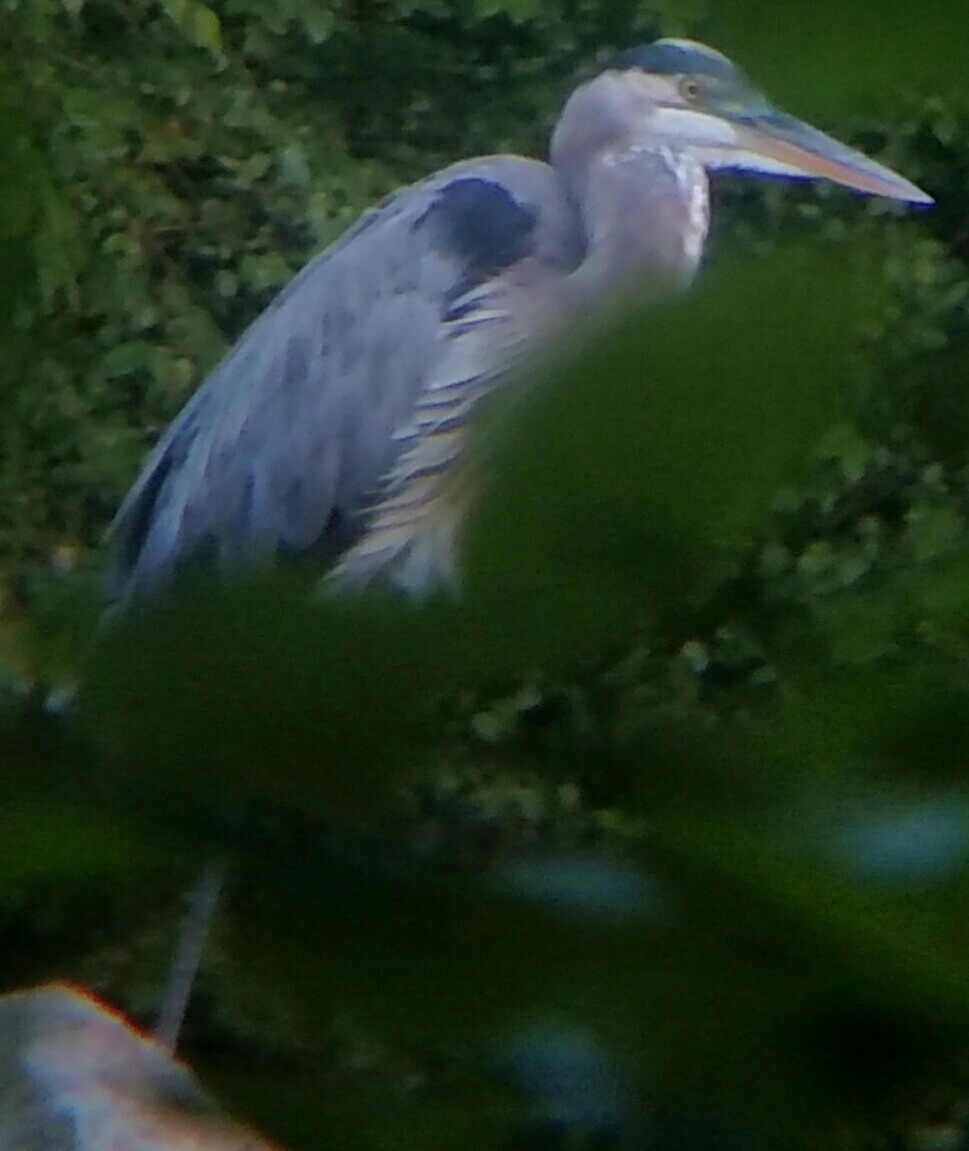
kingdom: Animalia
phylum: Chordata
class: Aves
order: Pelecaniformes
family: Ardeidae
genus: Ardea
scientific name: Ardea herodias
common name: Great blue heron
